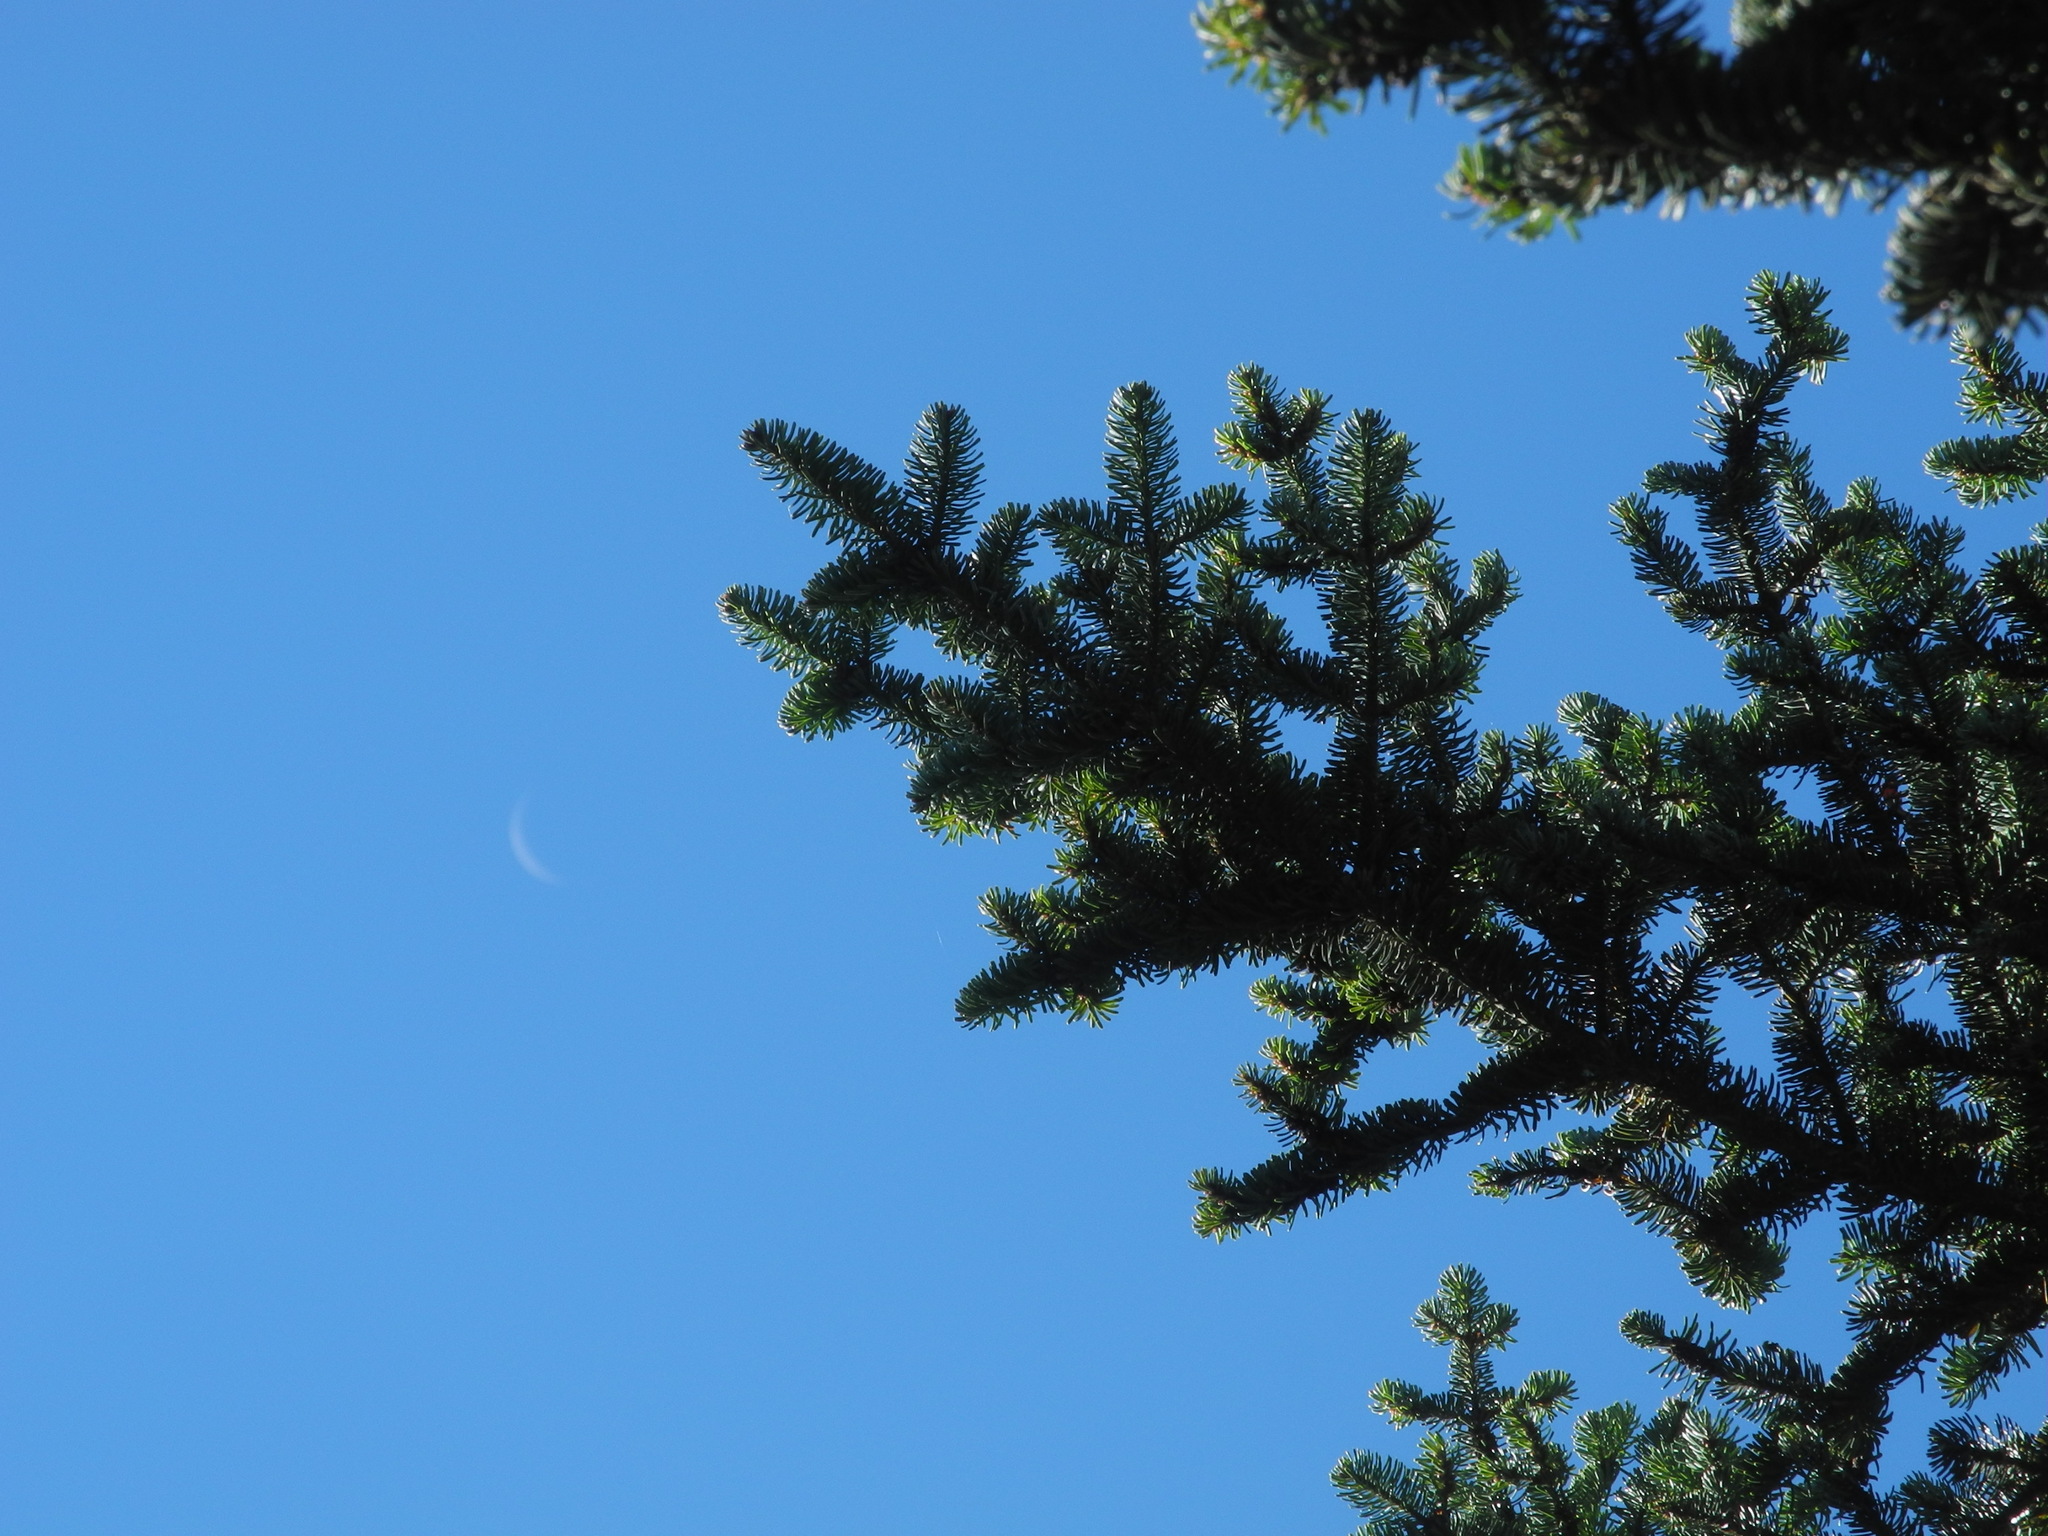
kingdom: Plantae
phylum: Tracheophyta
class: Pinopsida
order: Pinales
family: Pinaceae
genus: Picea
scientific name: Picea rubens
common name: Red spruce
